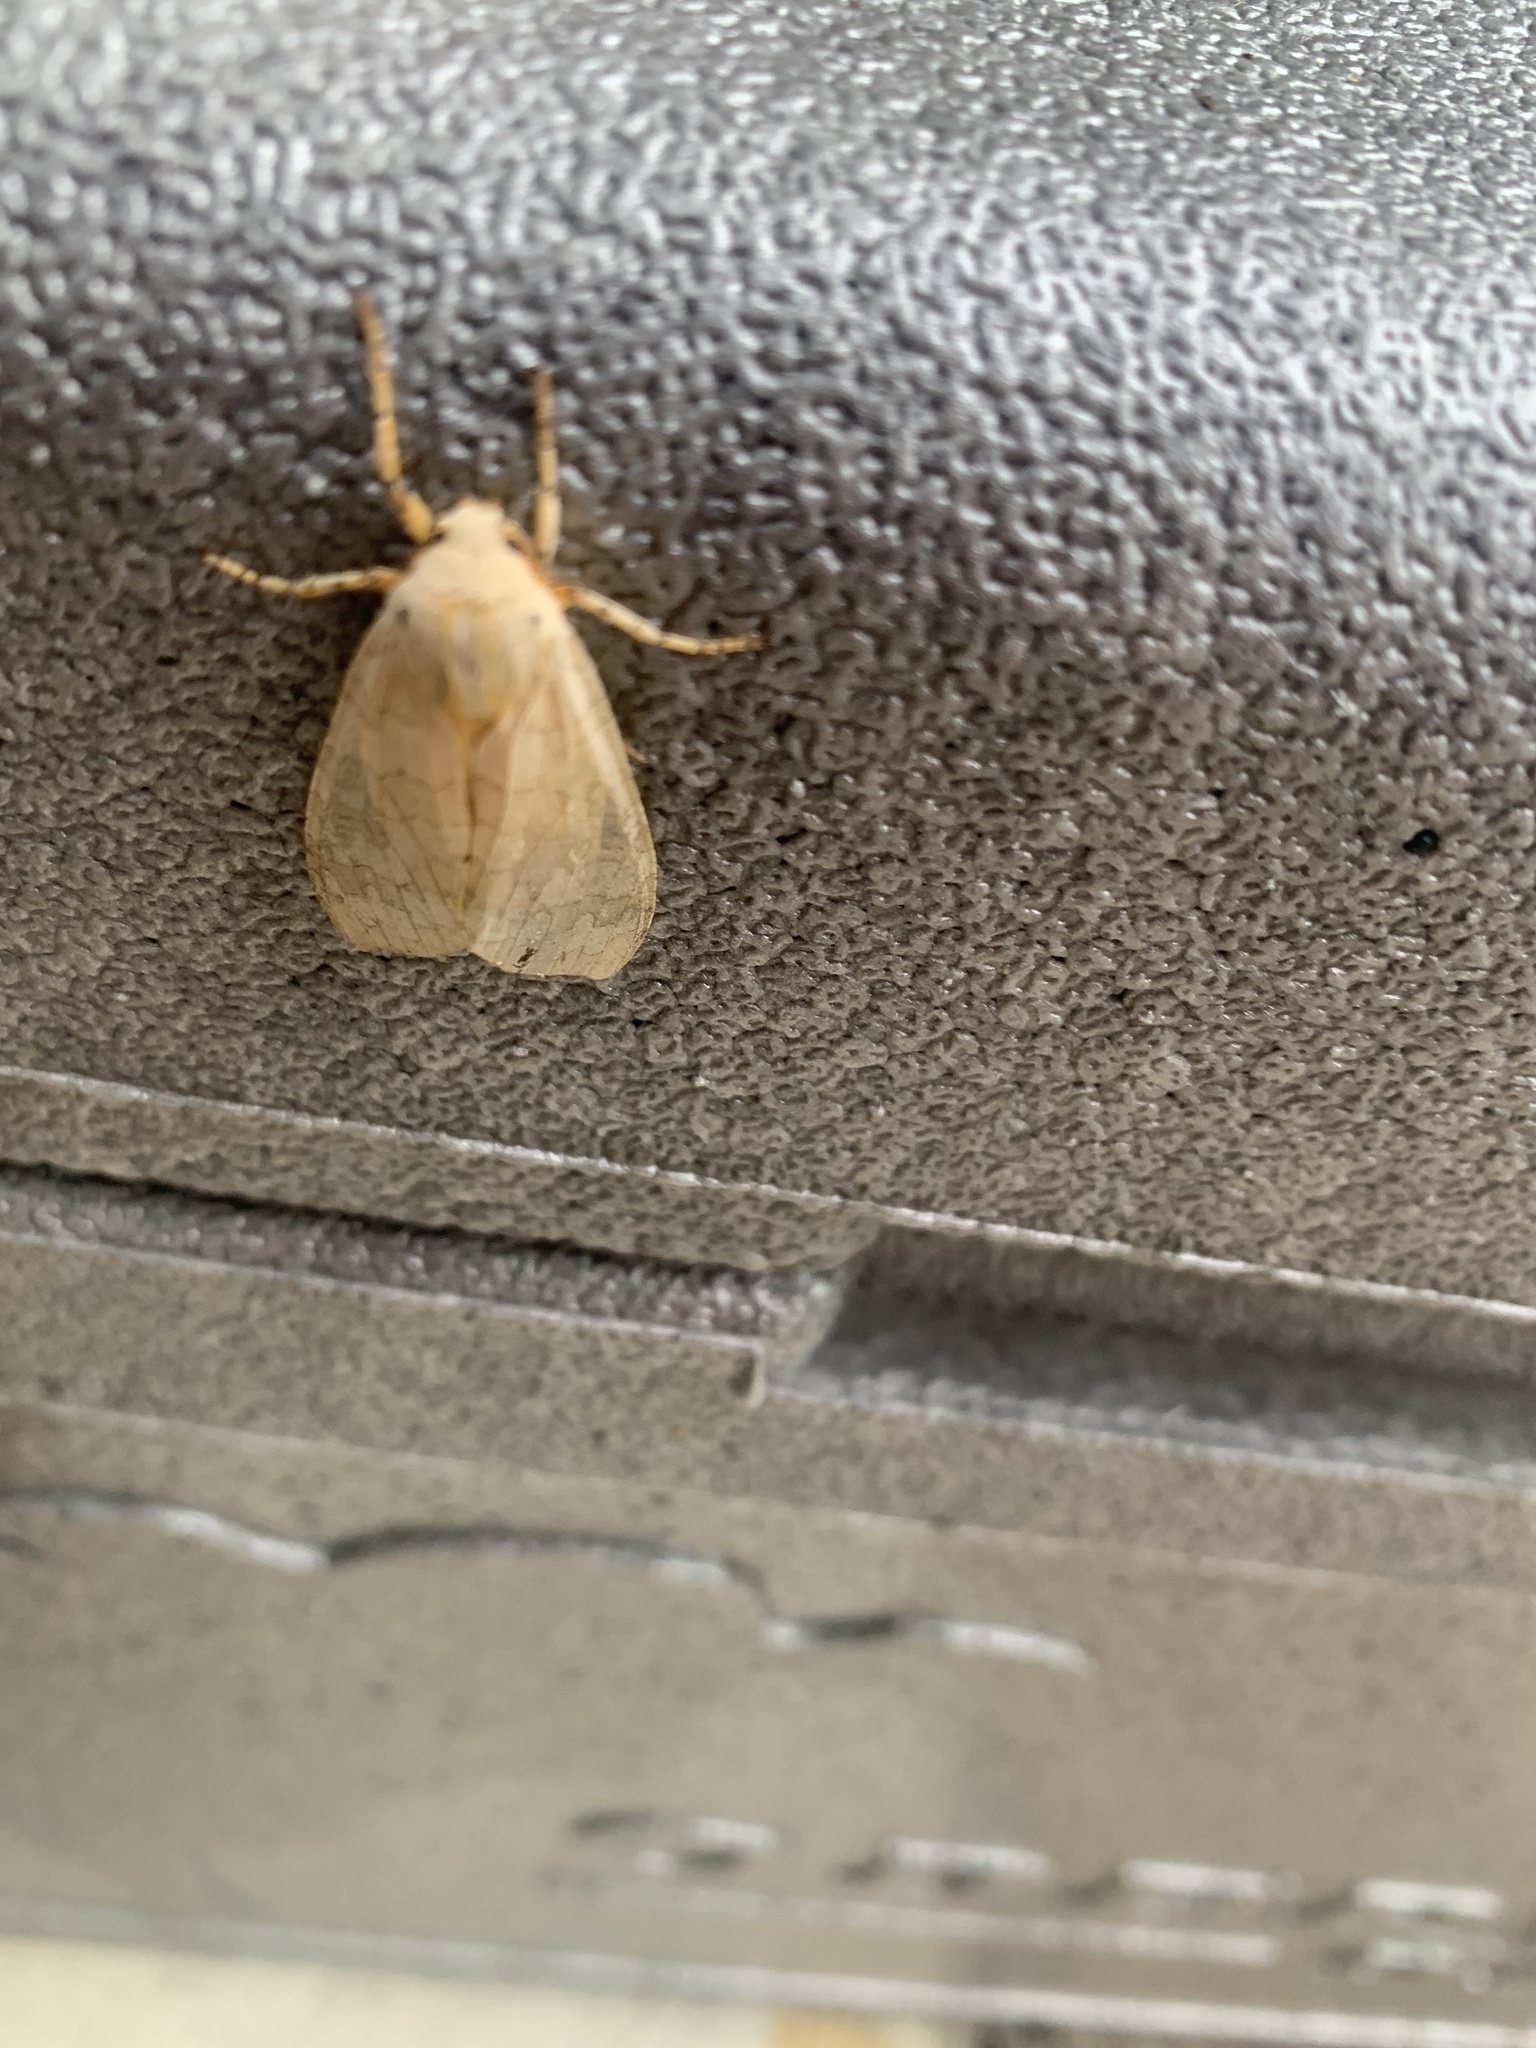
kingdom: Animalia
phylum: Arthropoda
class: Insecta
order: Lepidoptera
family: Erebidae
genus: Halysidota
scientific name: Halysidota
